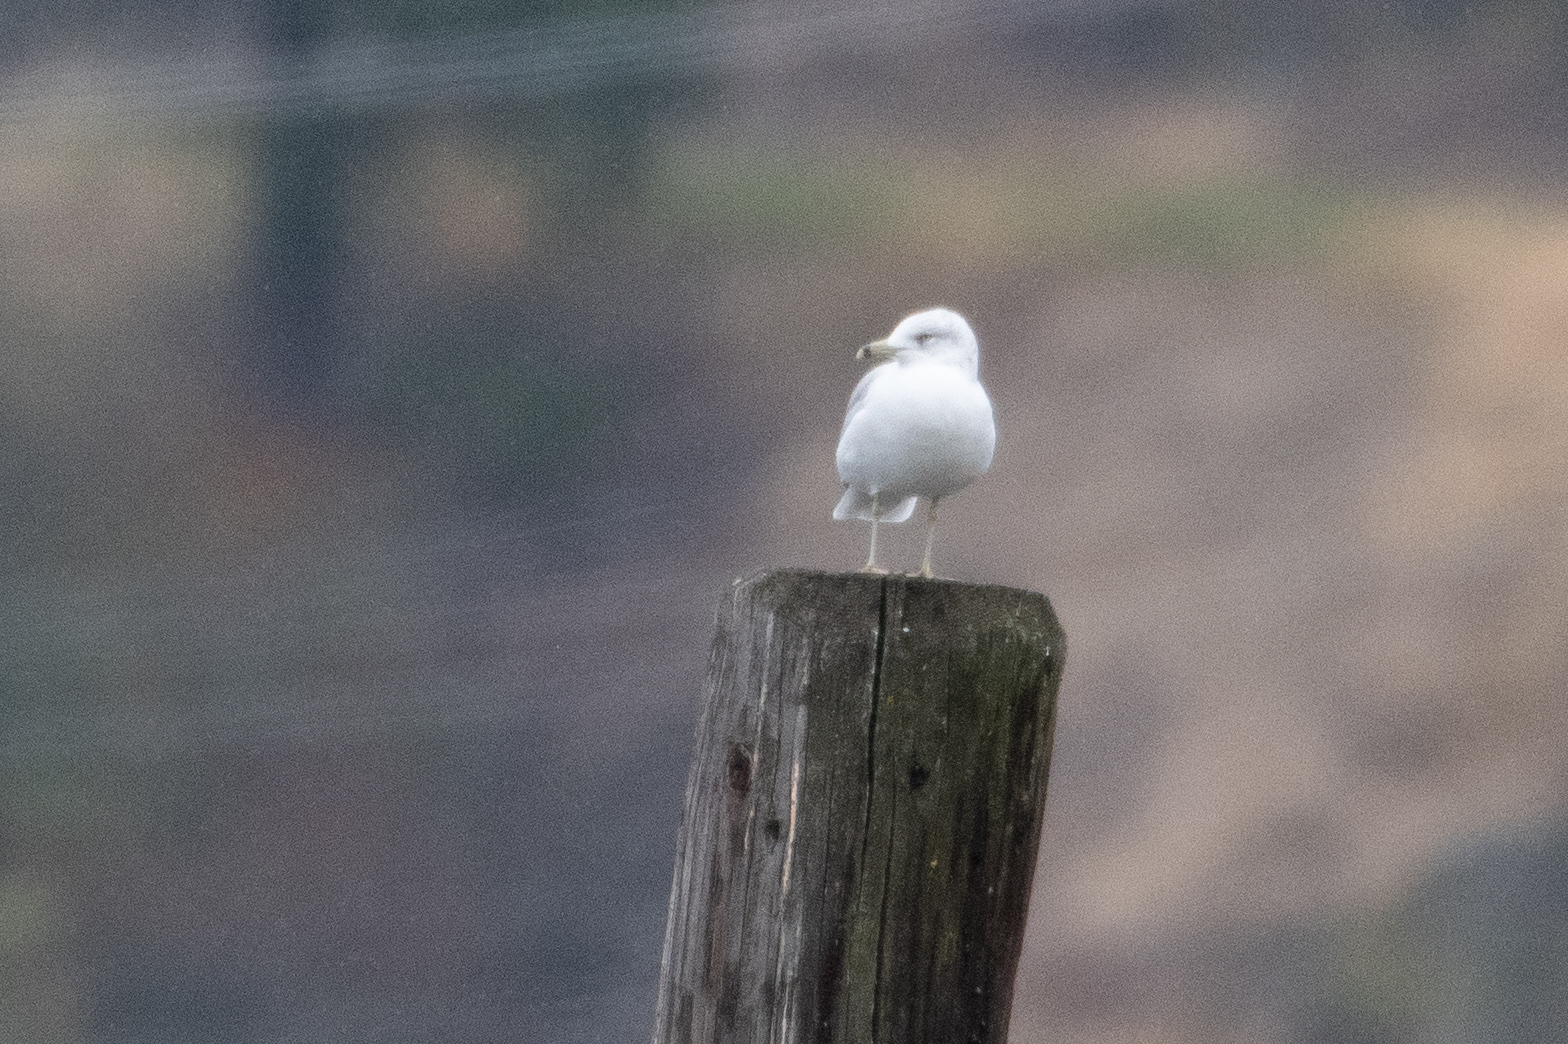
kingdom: Animalia
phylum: Chordata
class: Aves
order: Charadriiformes
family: Laridae
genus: Larus
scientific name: Larus delawarensis
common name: Ring-billed gull
